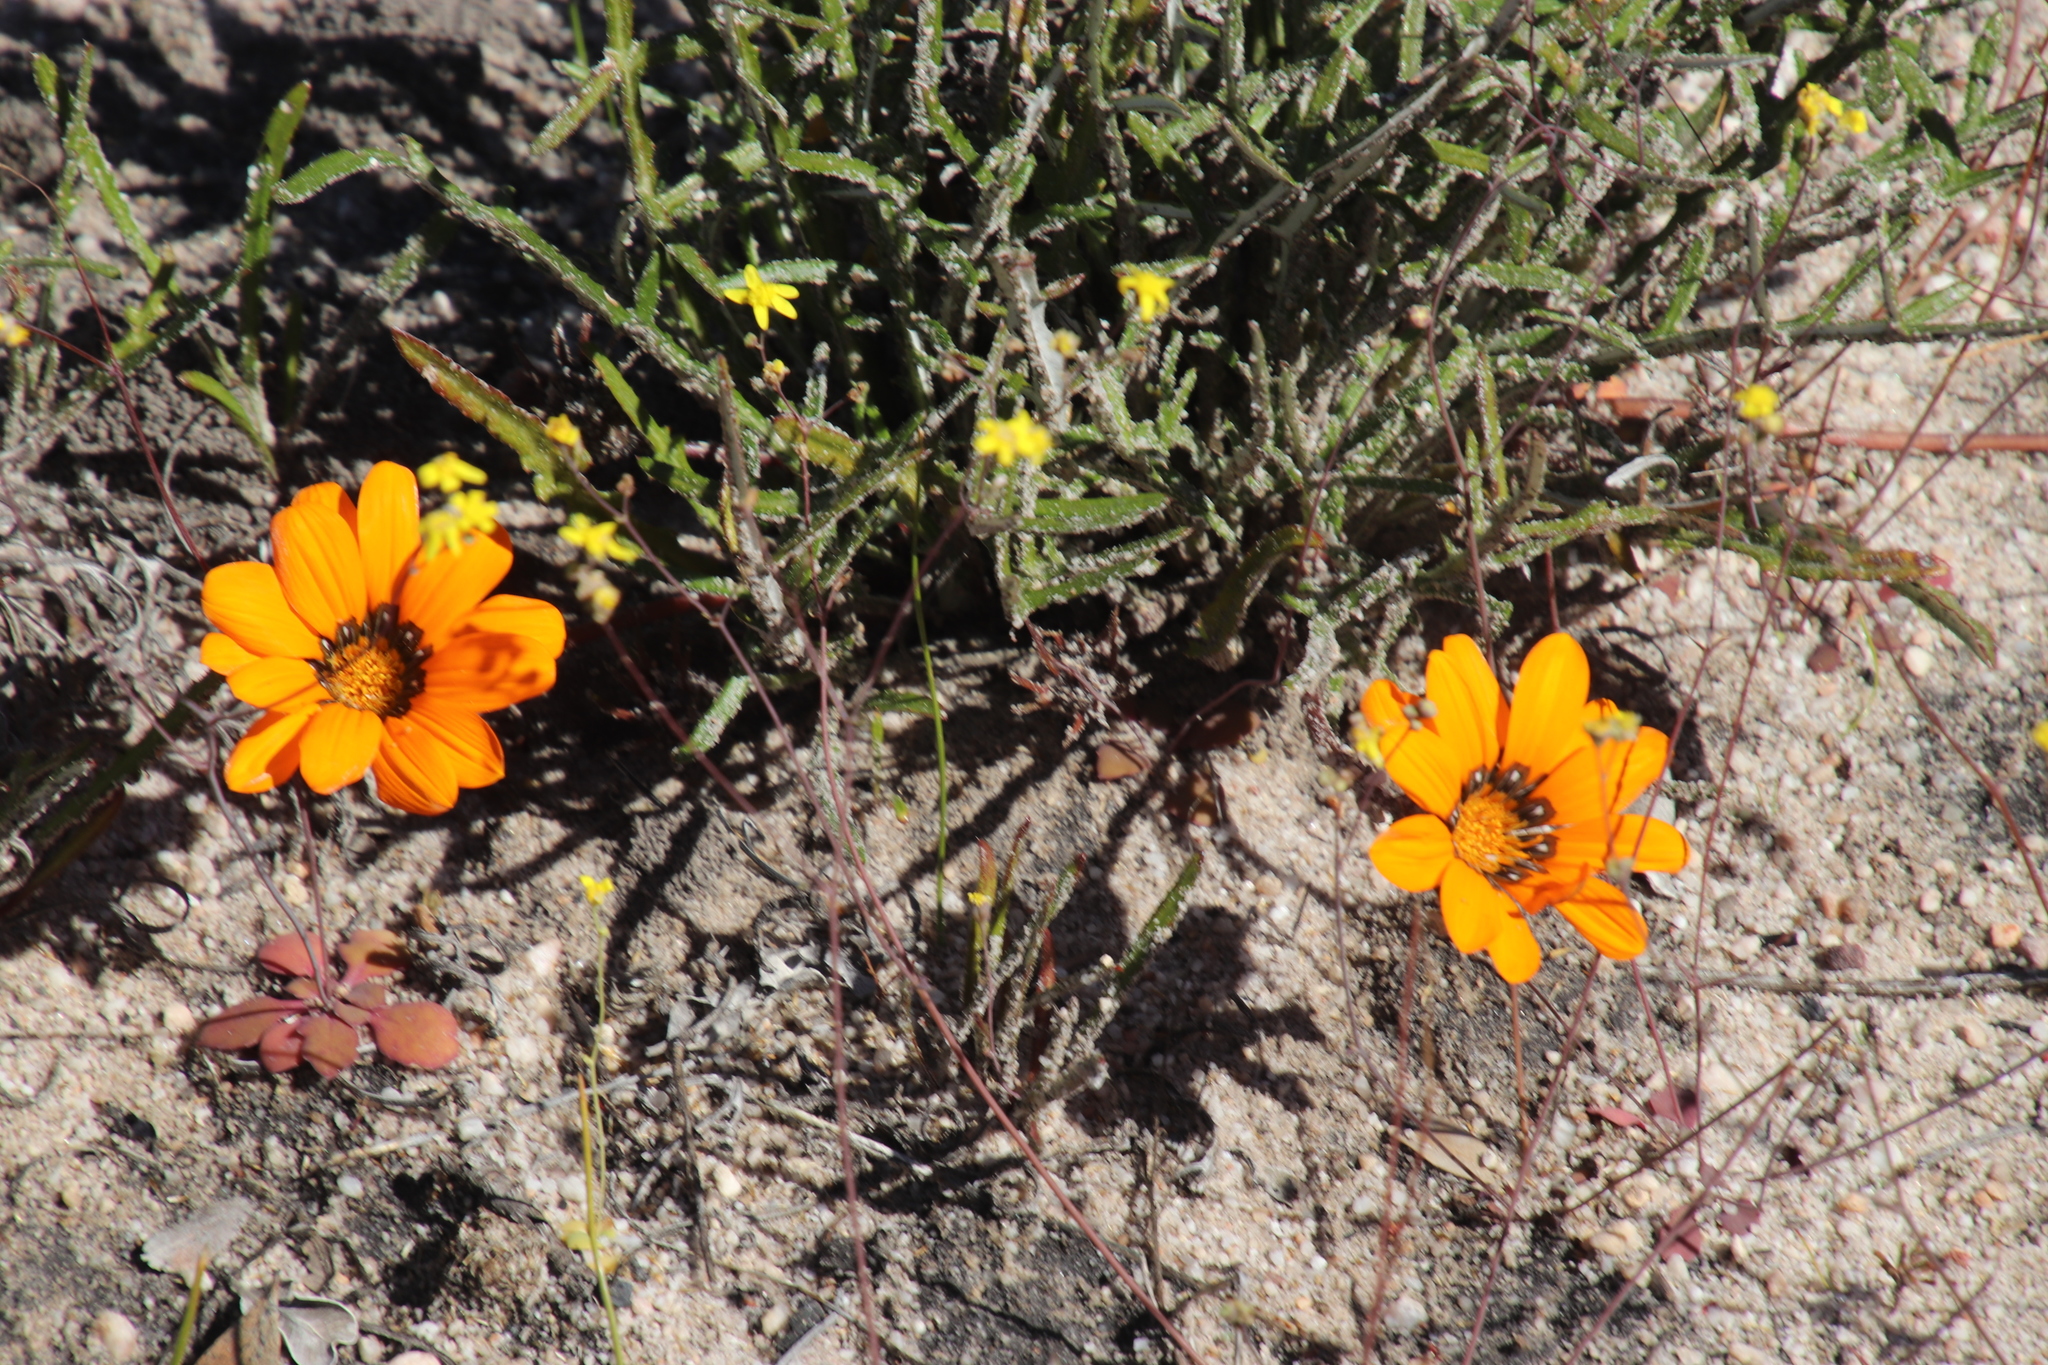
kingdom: Plantae
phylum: Tracheophyta
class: Magnoliopsida
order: Asterales
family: Asteraceae
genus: Gazania
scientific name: Gazania serrata
